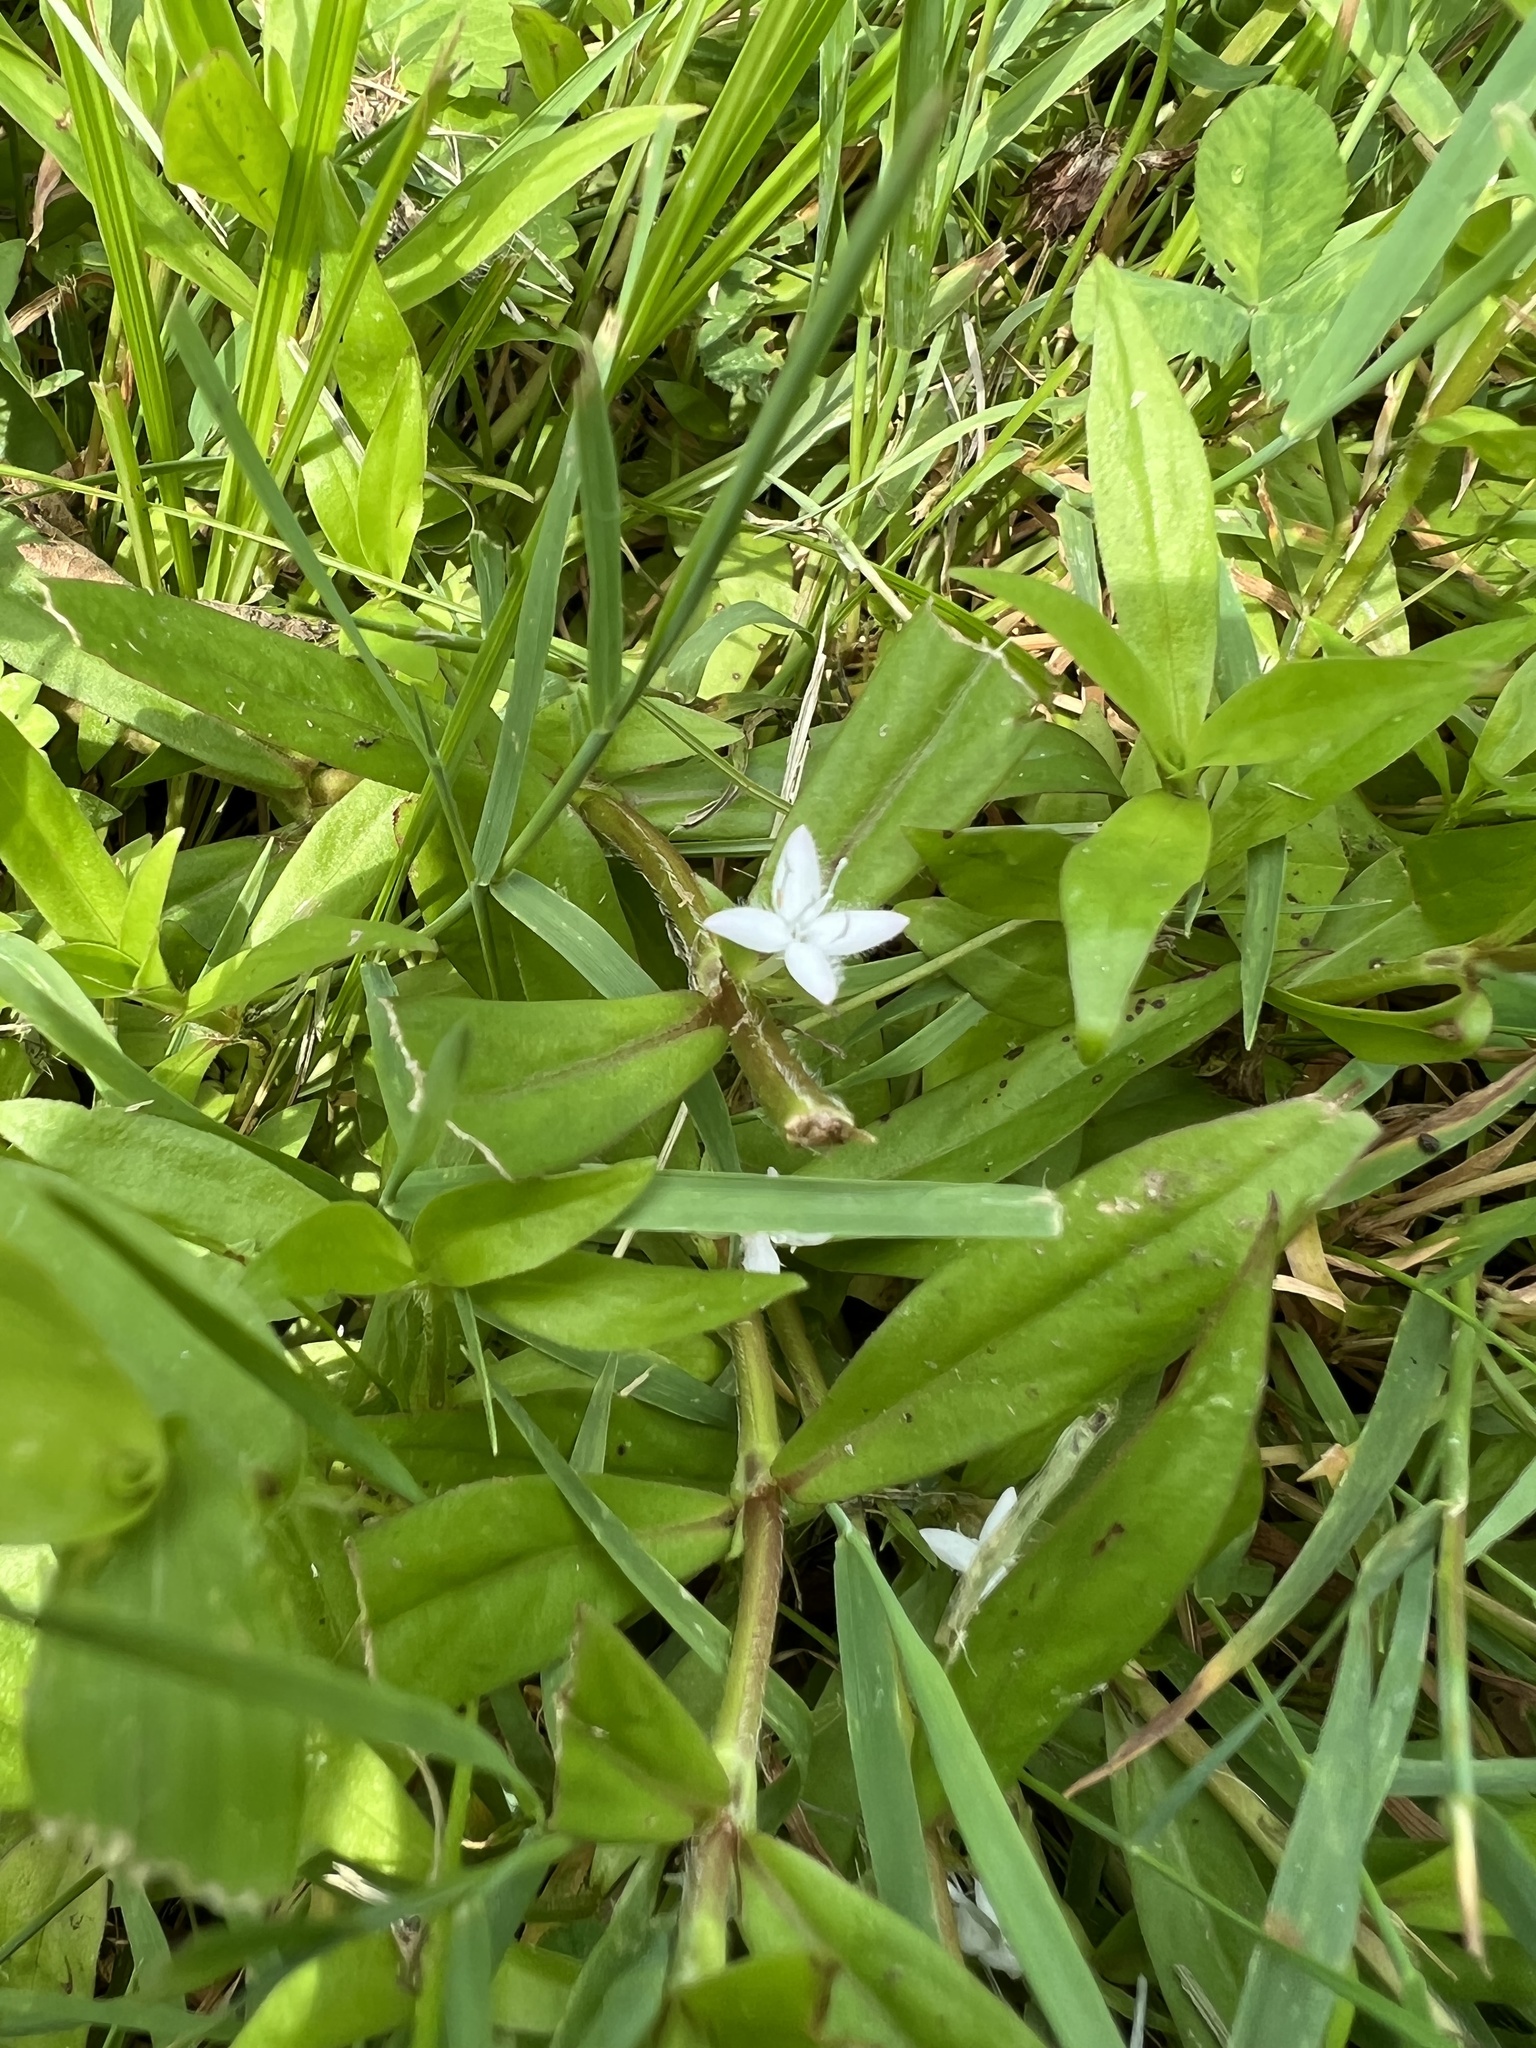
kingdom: Plantae
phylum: Tracheophyta
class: Magnoliopsida
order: Gentianales
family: Rubiaceae
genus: Diodia
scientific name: Diodia virginiana
